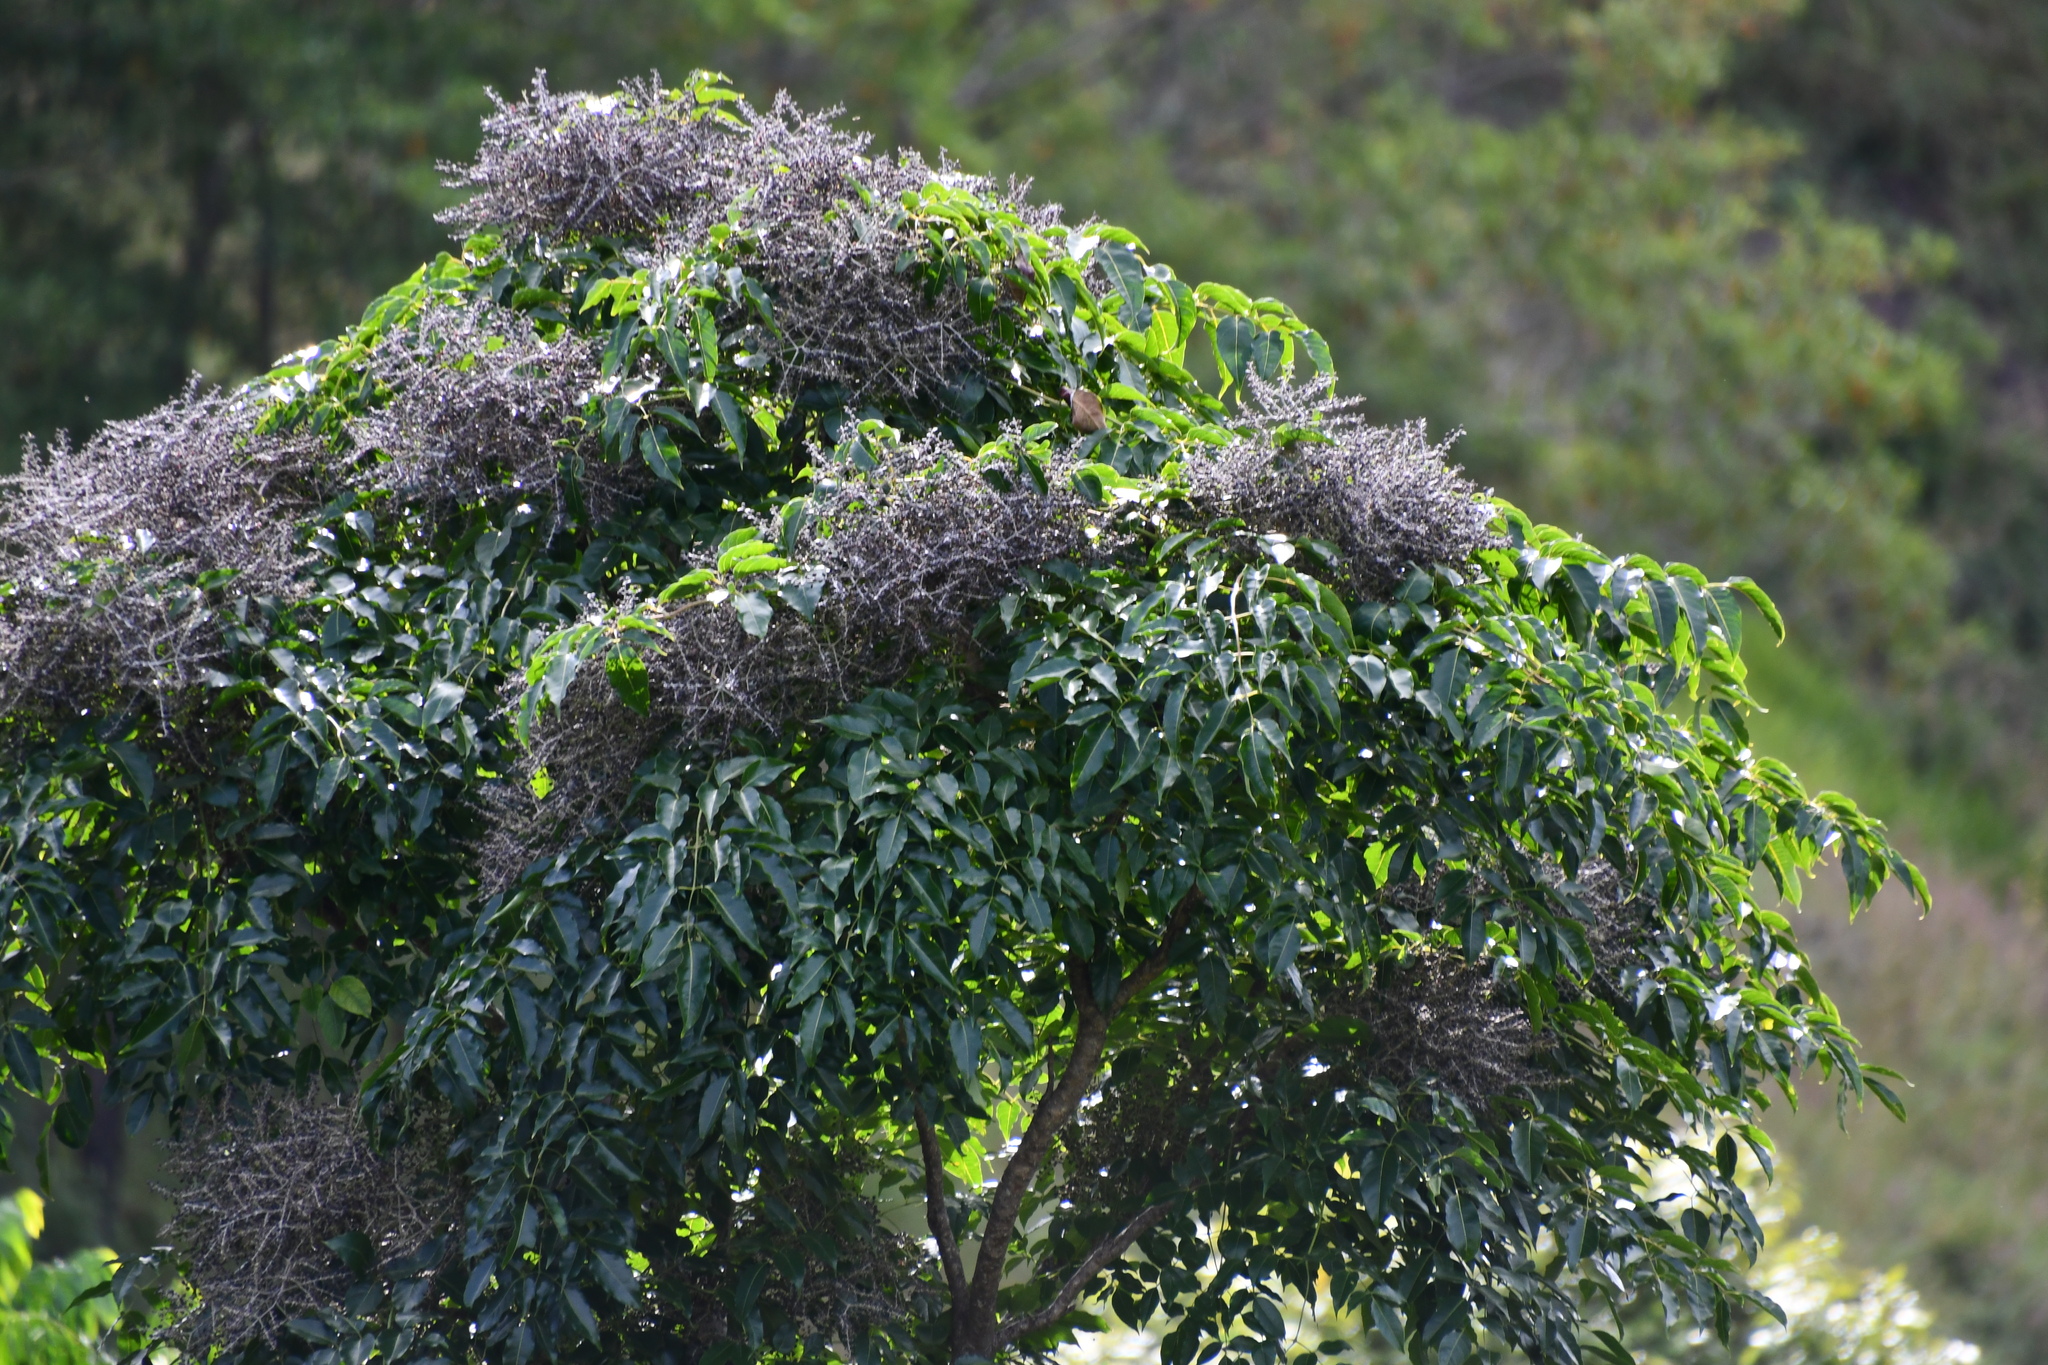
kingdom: Plantae
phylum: Tracheophyta
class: Magnoliopsida
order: Apiales
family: Araliaceae
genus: Polyscias
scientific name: Polyscias elegans
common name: Mowbulan whitewood
